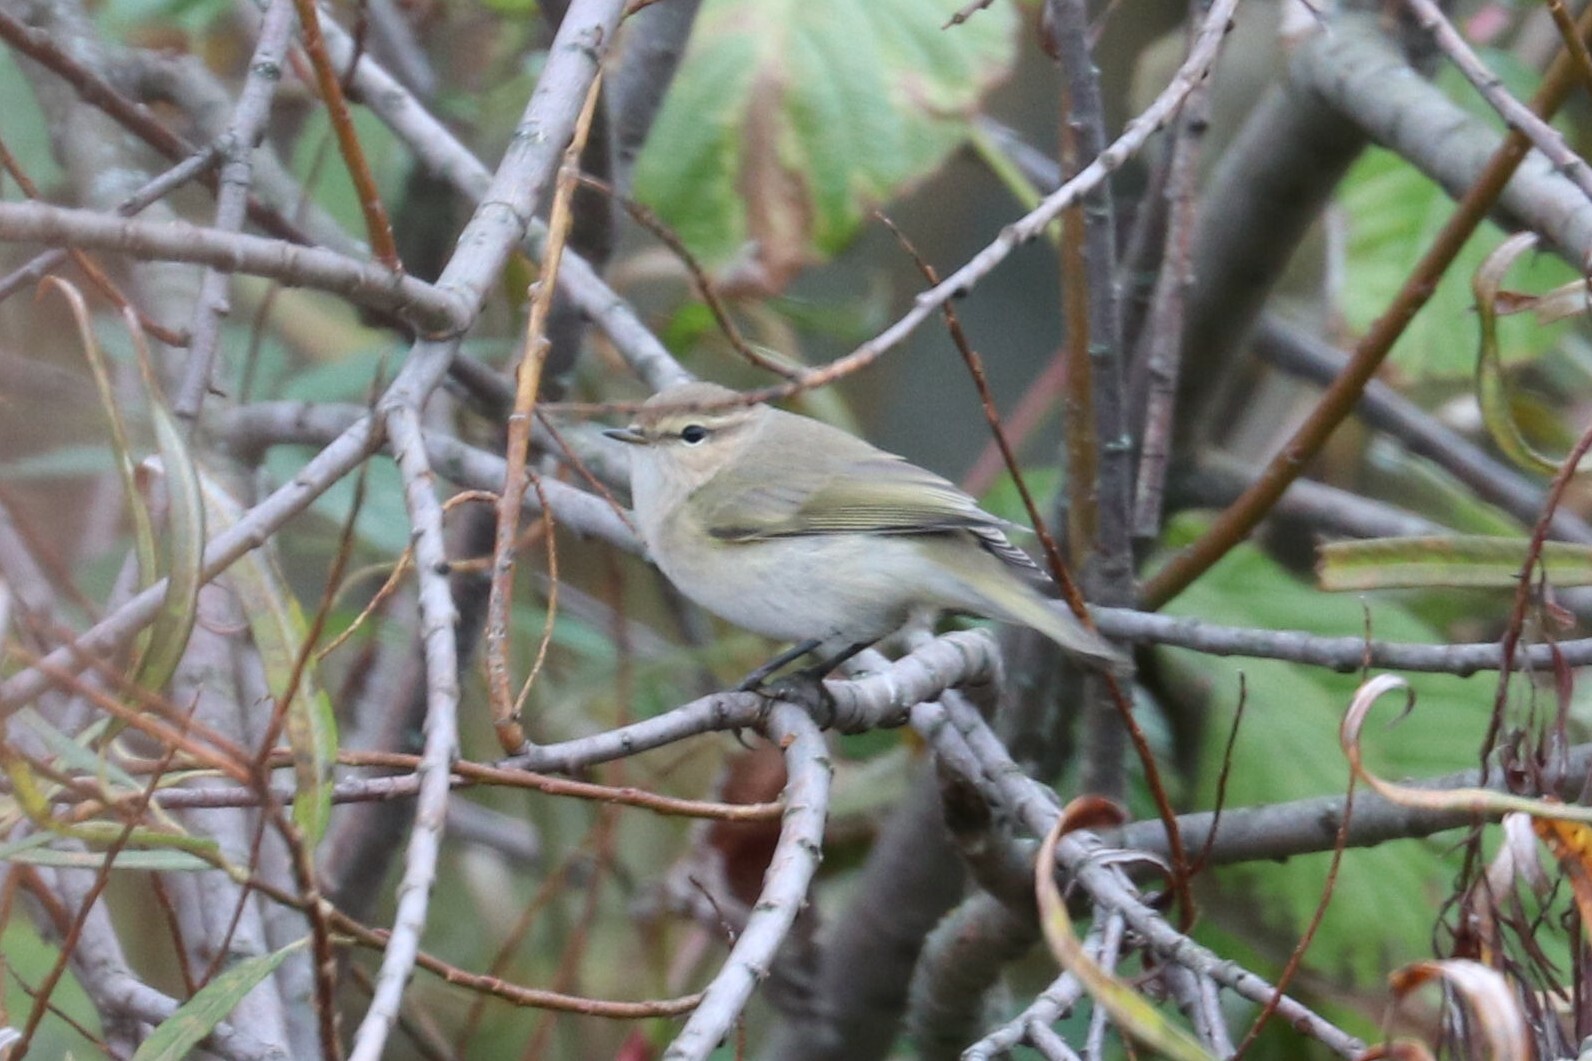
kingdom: Animalia
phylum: Chordata
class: Aves
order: Passeriformes
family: Phylloscopidae
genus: Phylloscopus
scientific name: Phylloscopus collybita
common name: Common chiffchaff
